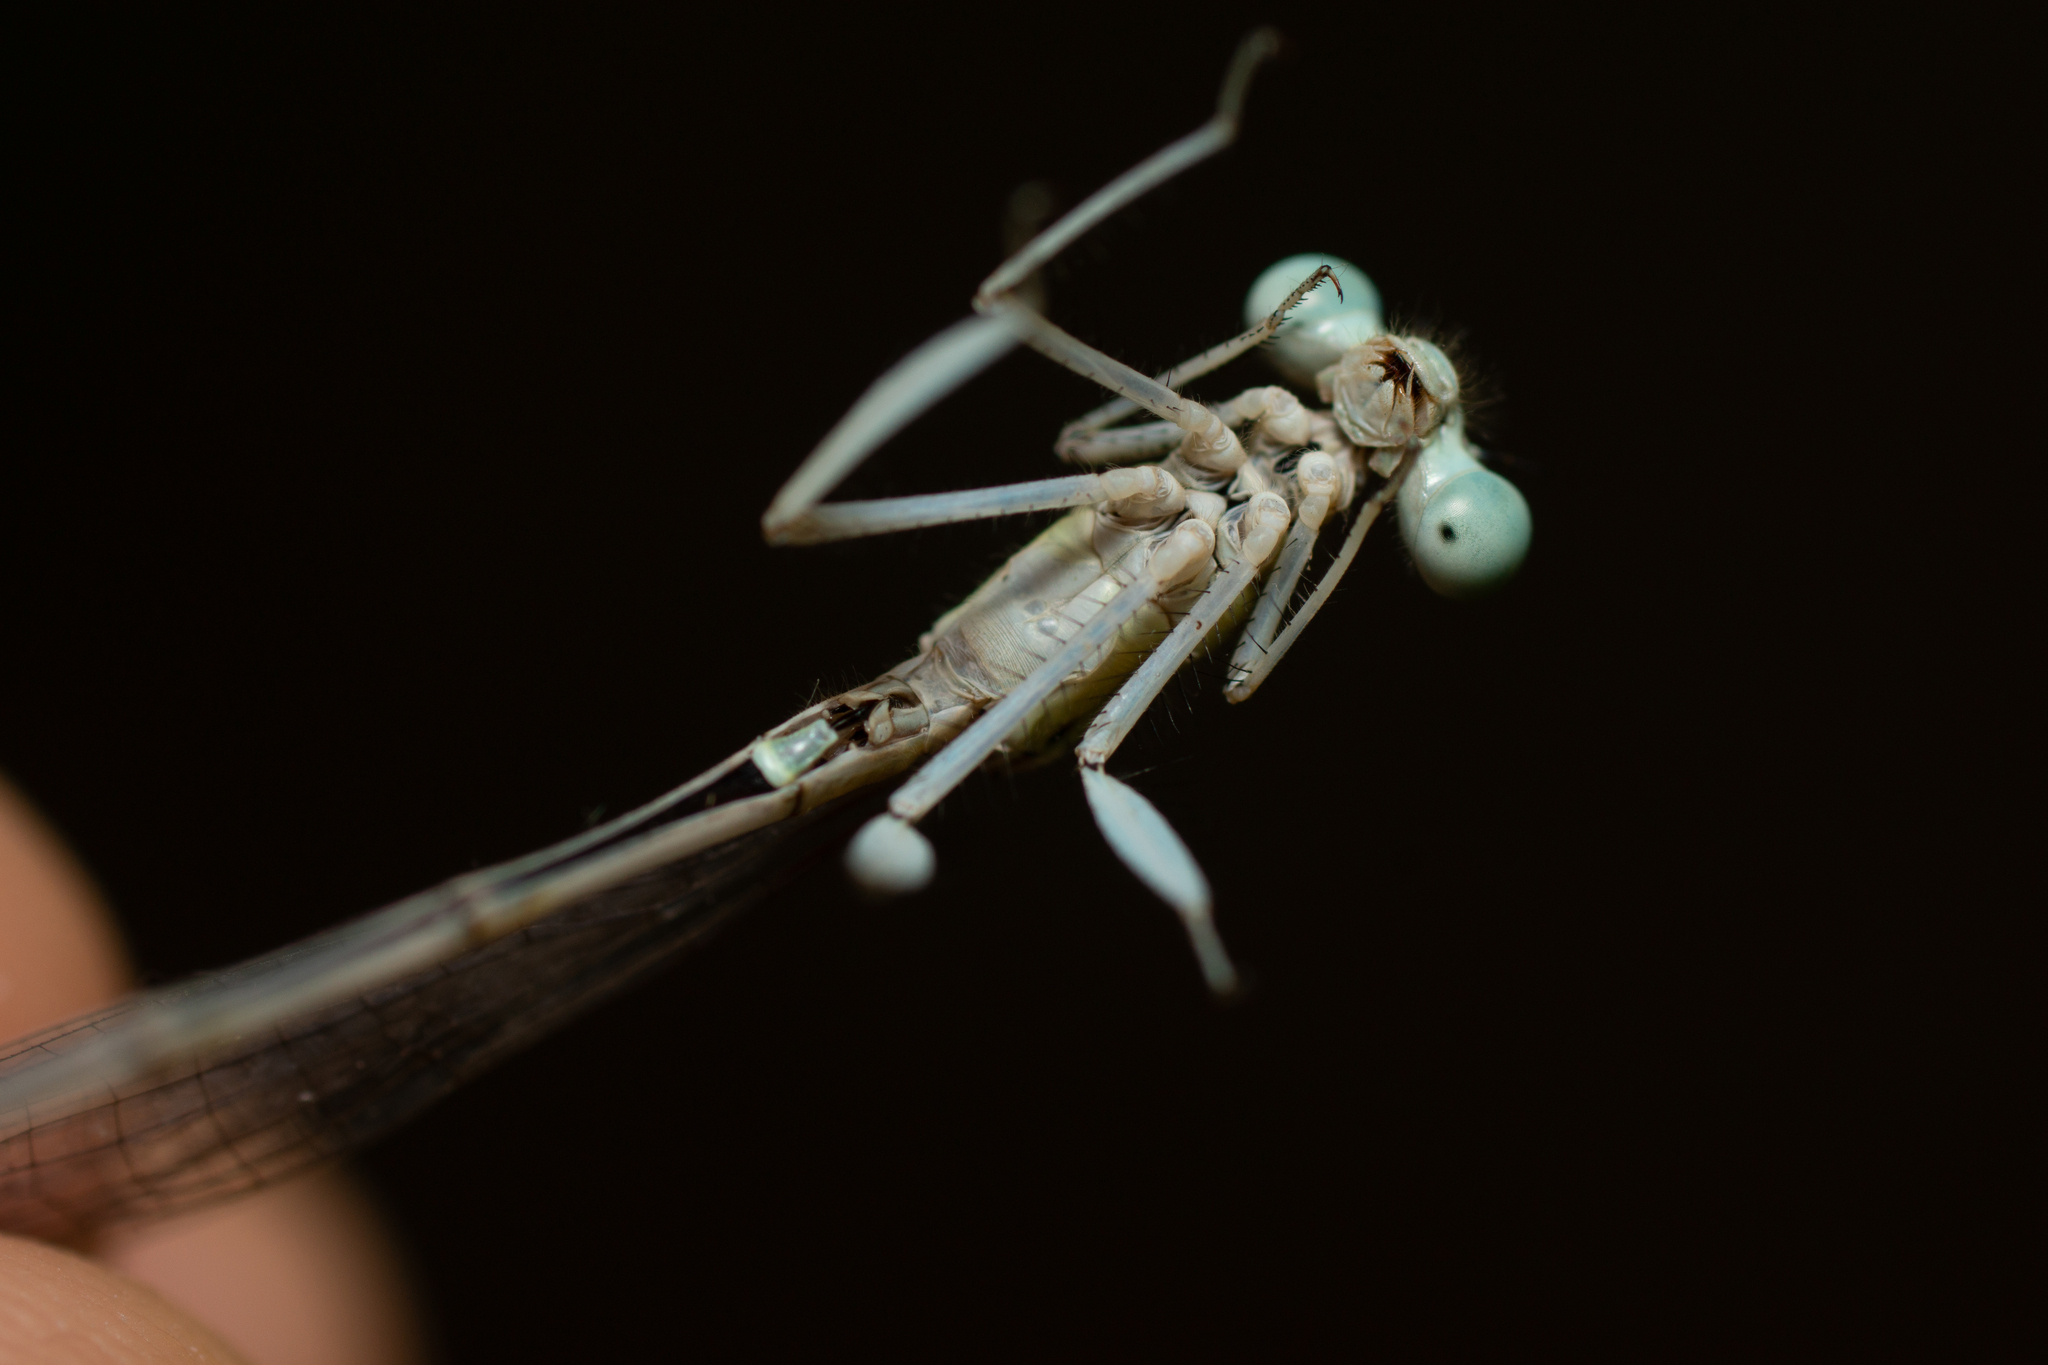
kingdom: Animalia
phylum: Arthropoda
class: Insecta
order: Odonata
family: Platycnemididae
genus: Platycnemis
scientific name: Platycnemis latipes
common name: White featherleg
